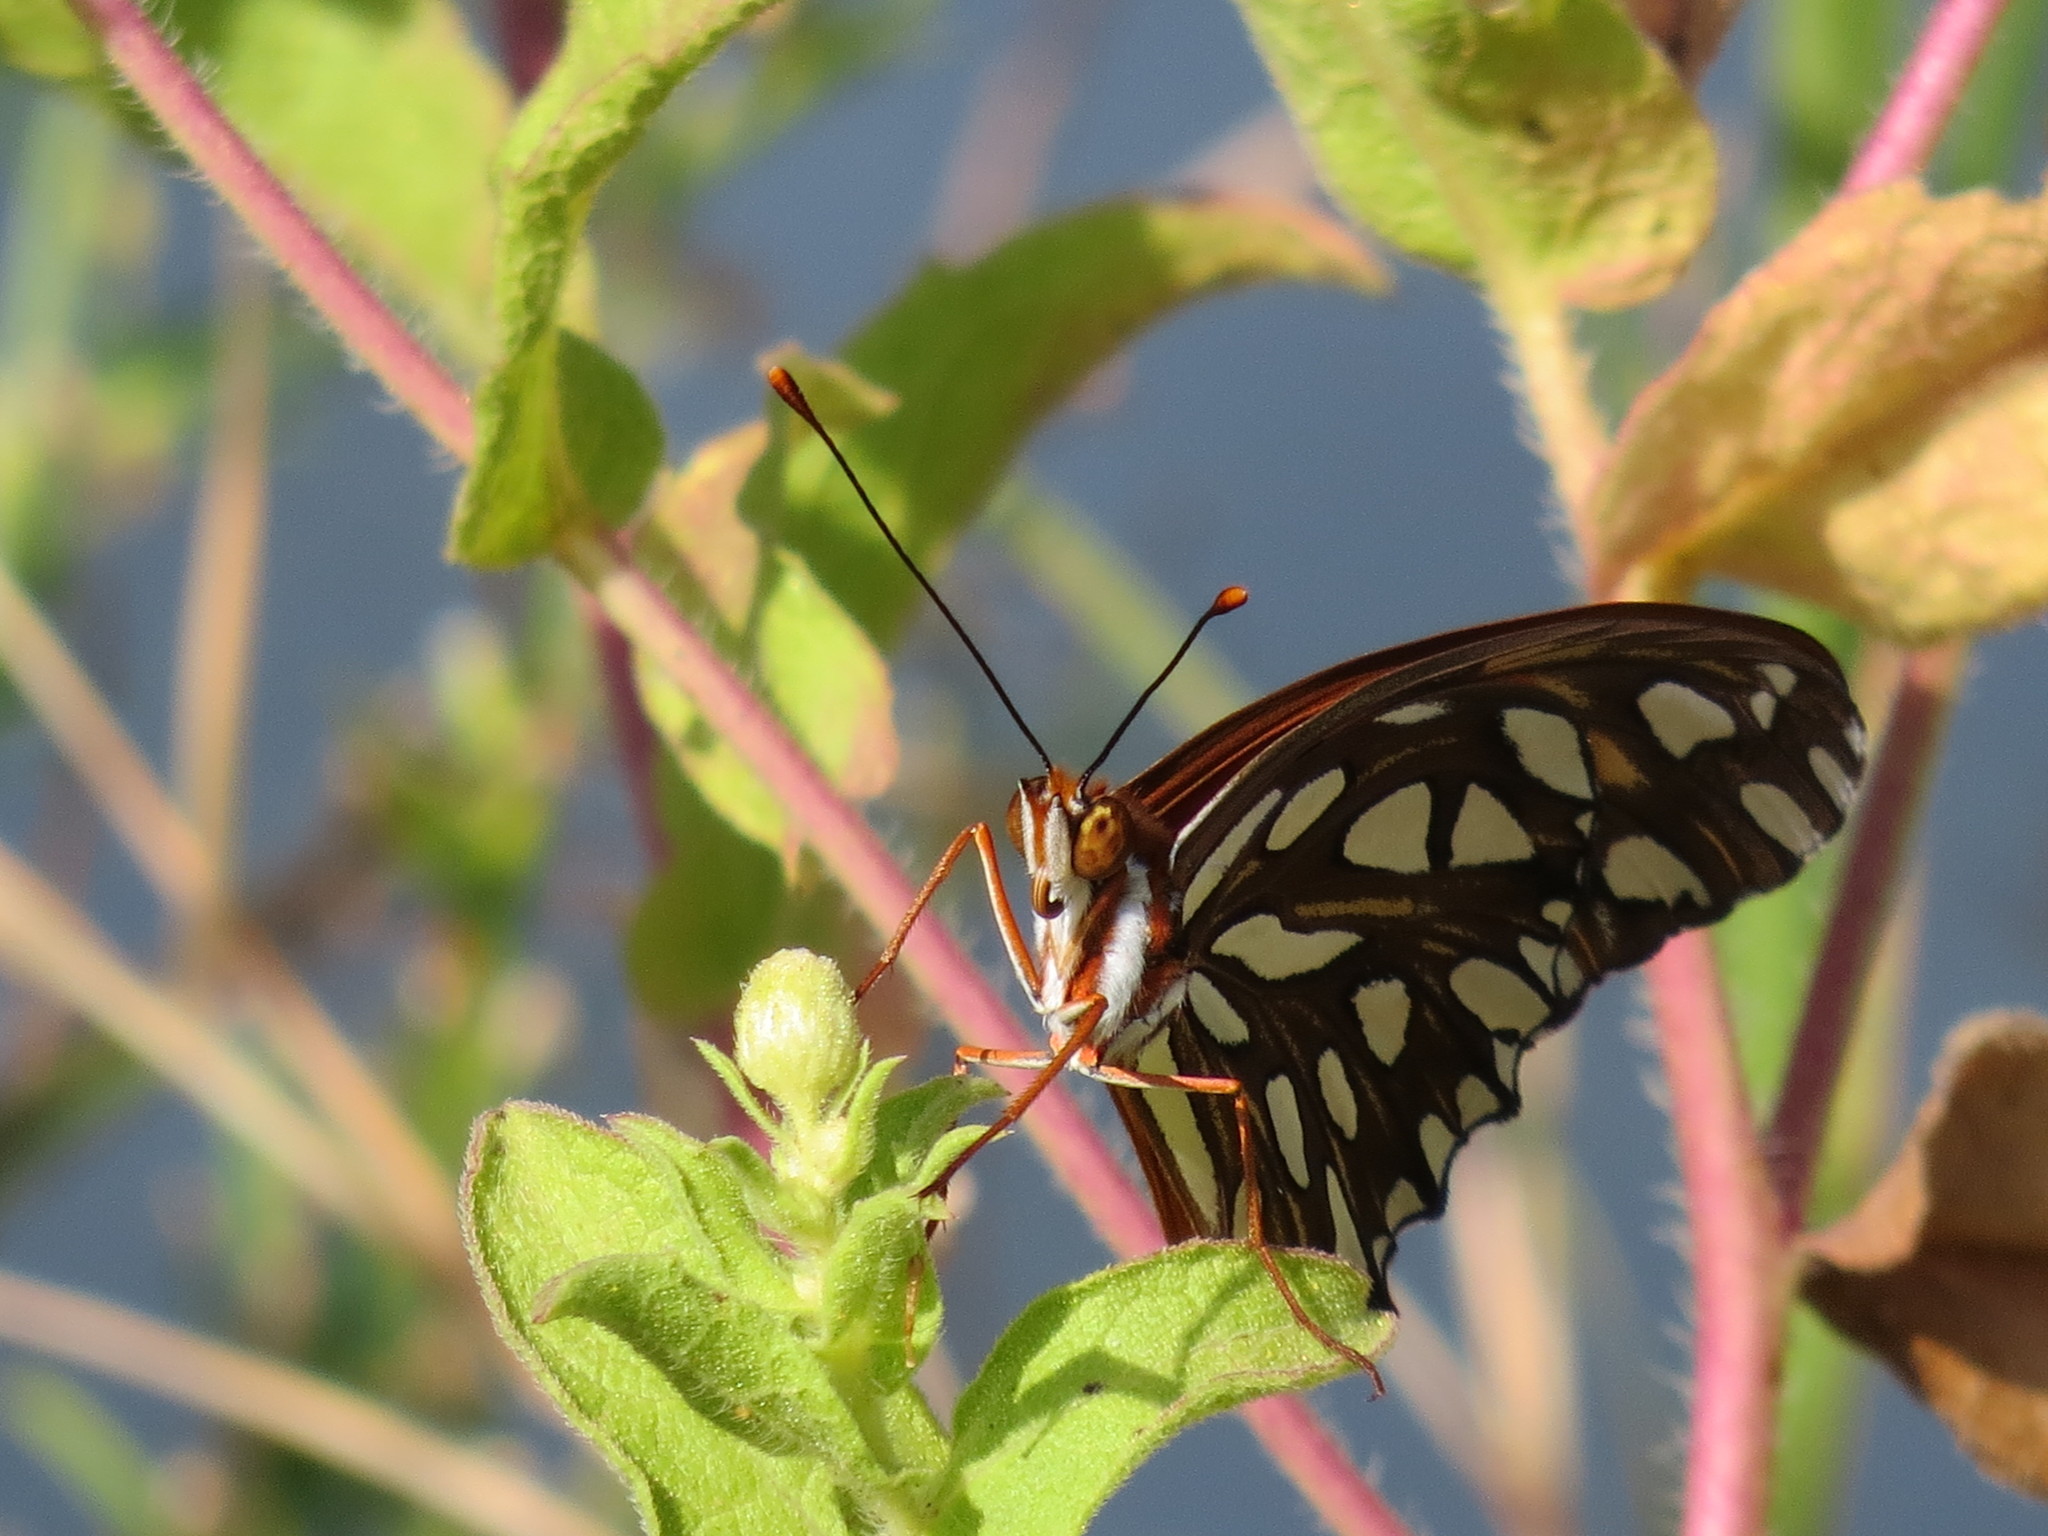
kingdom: Animalia
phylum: Arthropoda
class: Insecta
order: Lepidoptera
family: Nymphalidae
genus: Dione
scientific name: Dione vanillae
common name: Gulf fritillary
